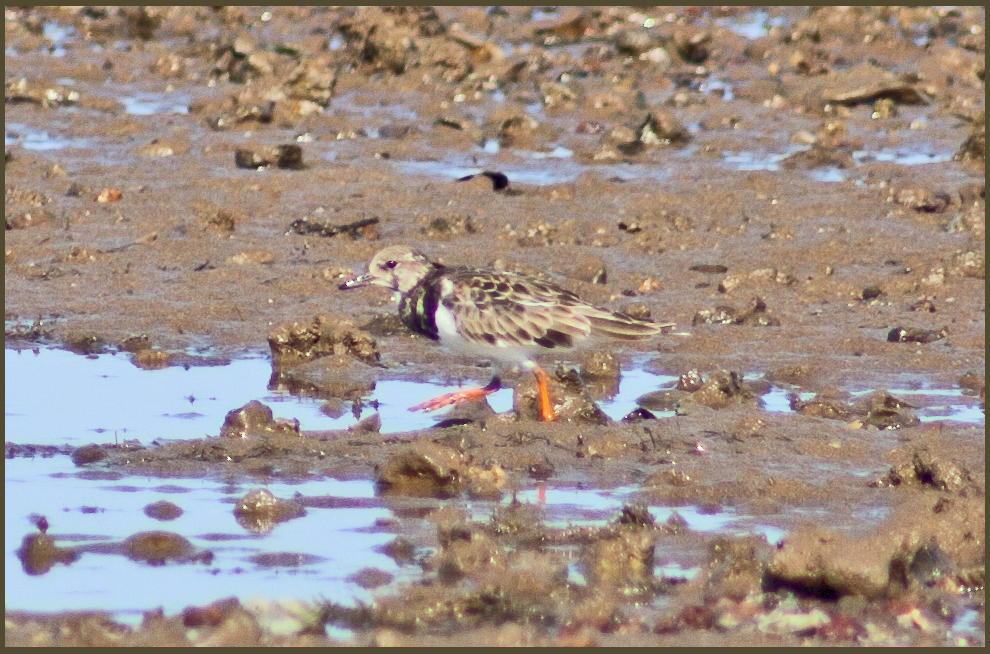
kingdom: Animalia
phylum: Chordata
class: Aves
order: Charadriiformes
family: Scolopacidae
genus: Arenaria
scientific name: Arenaria interpres
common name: Ruddy turnstone
